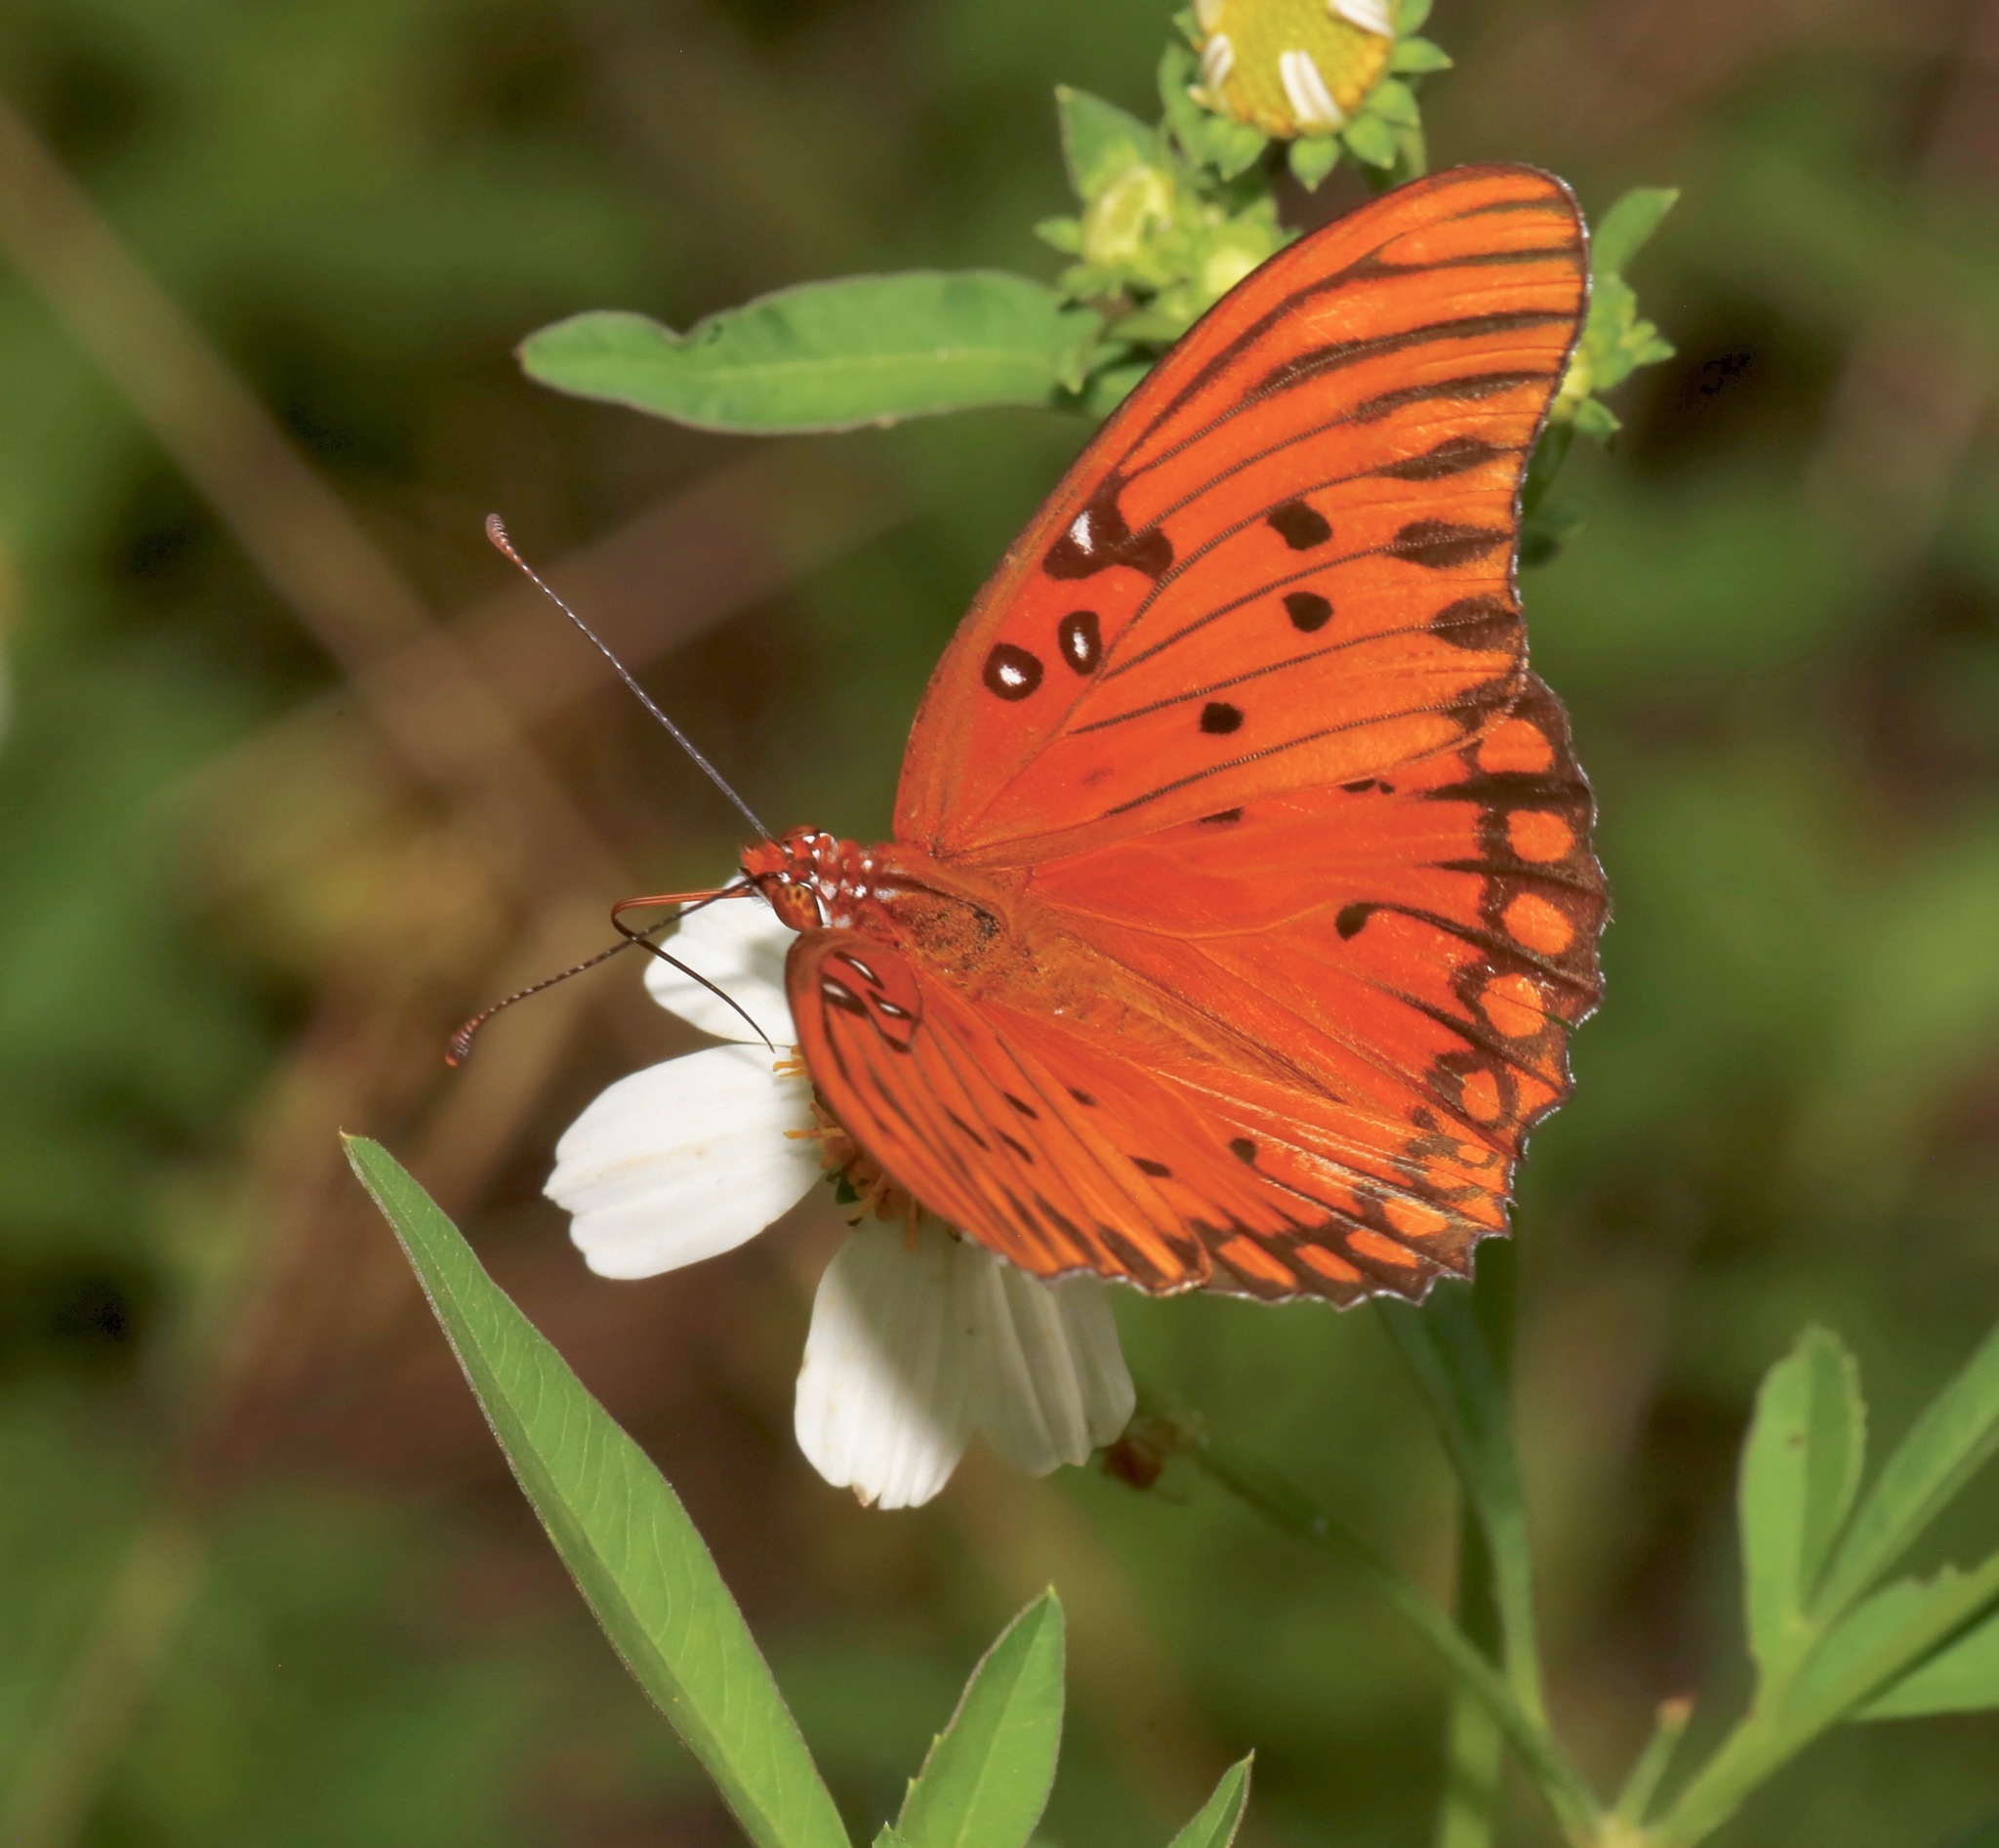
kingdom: Animalia
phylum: Arthropoda
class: Insecta
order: Lepidoptera
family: Nymphalidae
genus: Dione
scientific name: Dione vanillae
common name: Gulf fritillary
